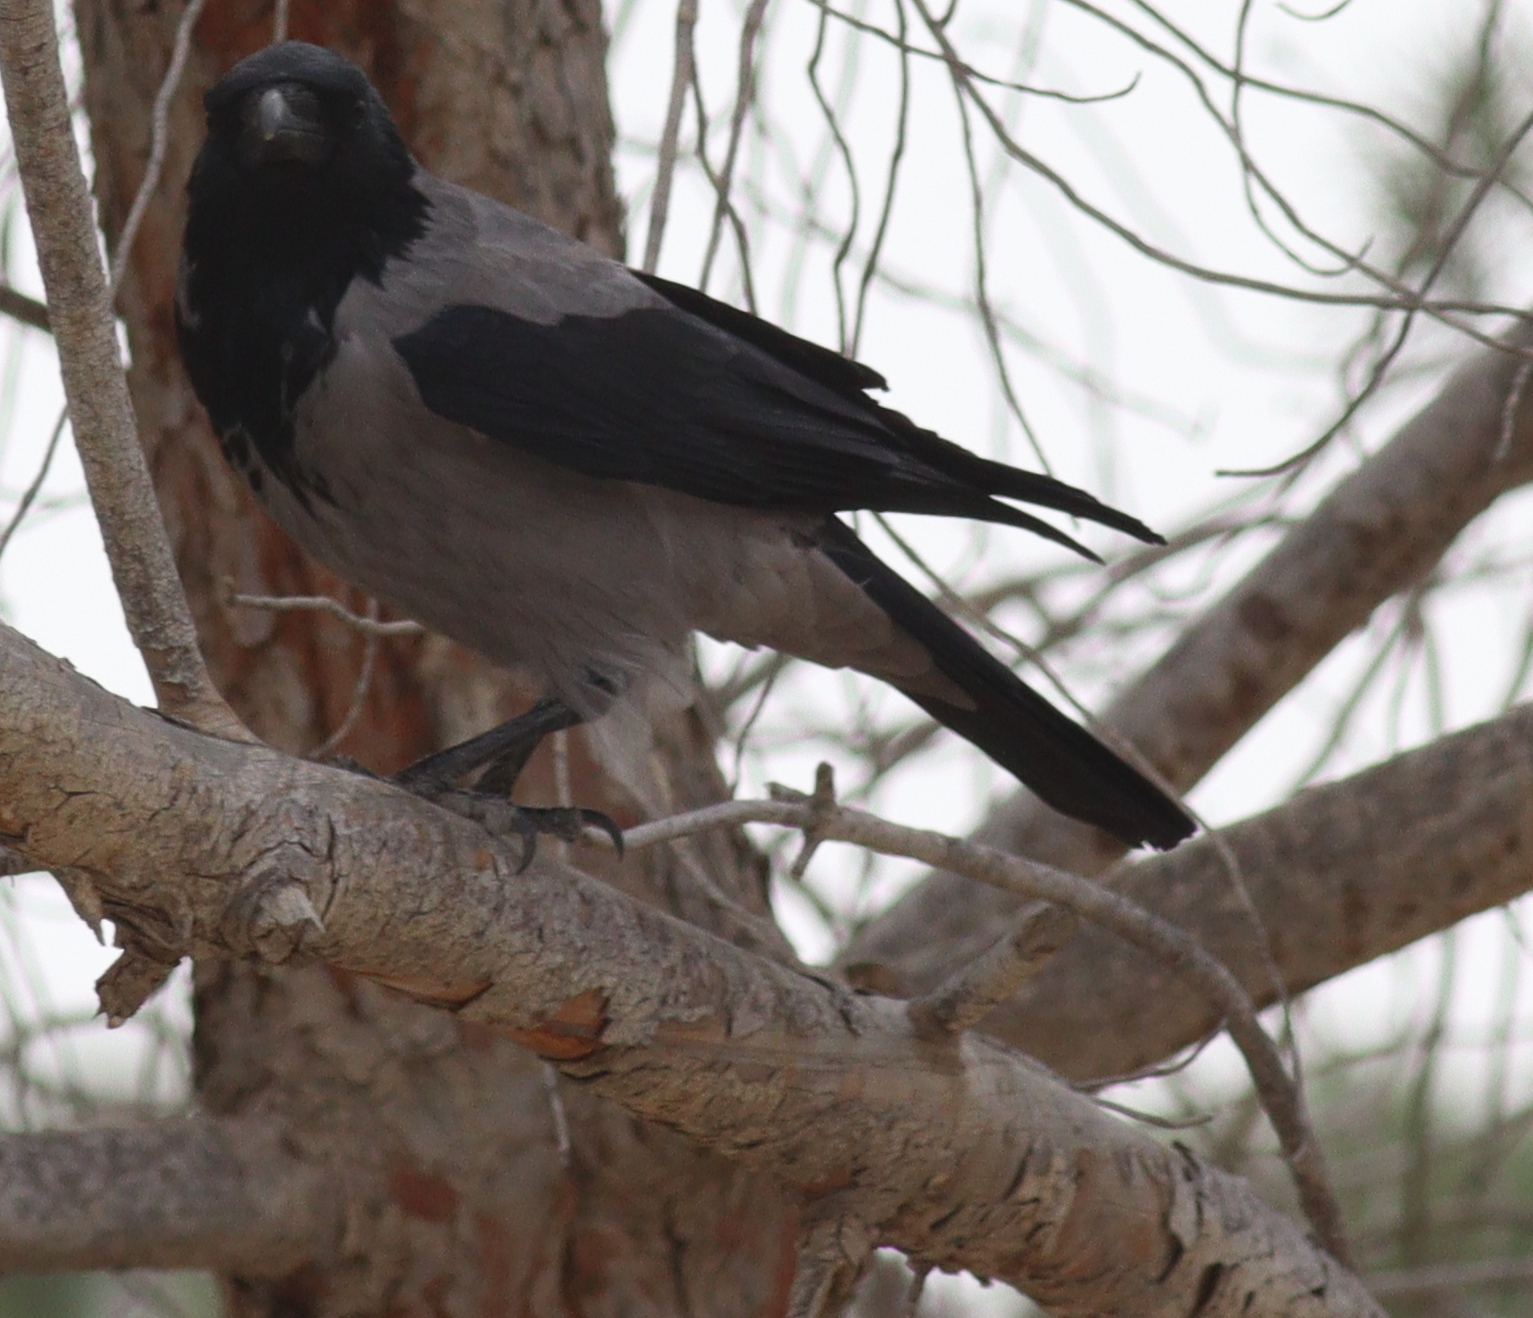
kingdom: Animalia
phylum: Chordata
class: Aves
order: Passeriformes
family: Corvidae
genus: Corvus
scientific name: Corvus cornix
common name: Hooded crow
